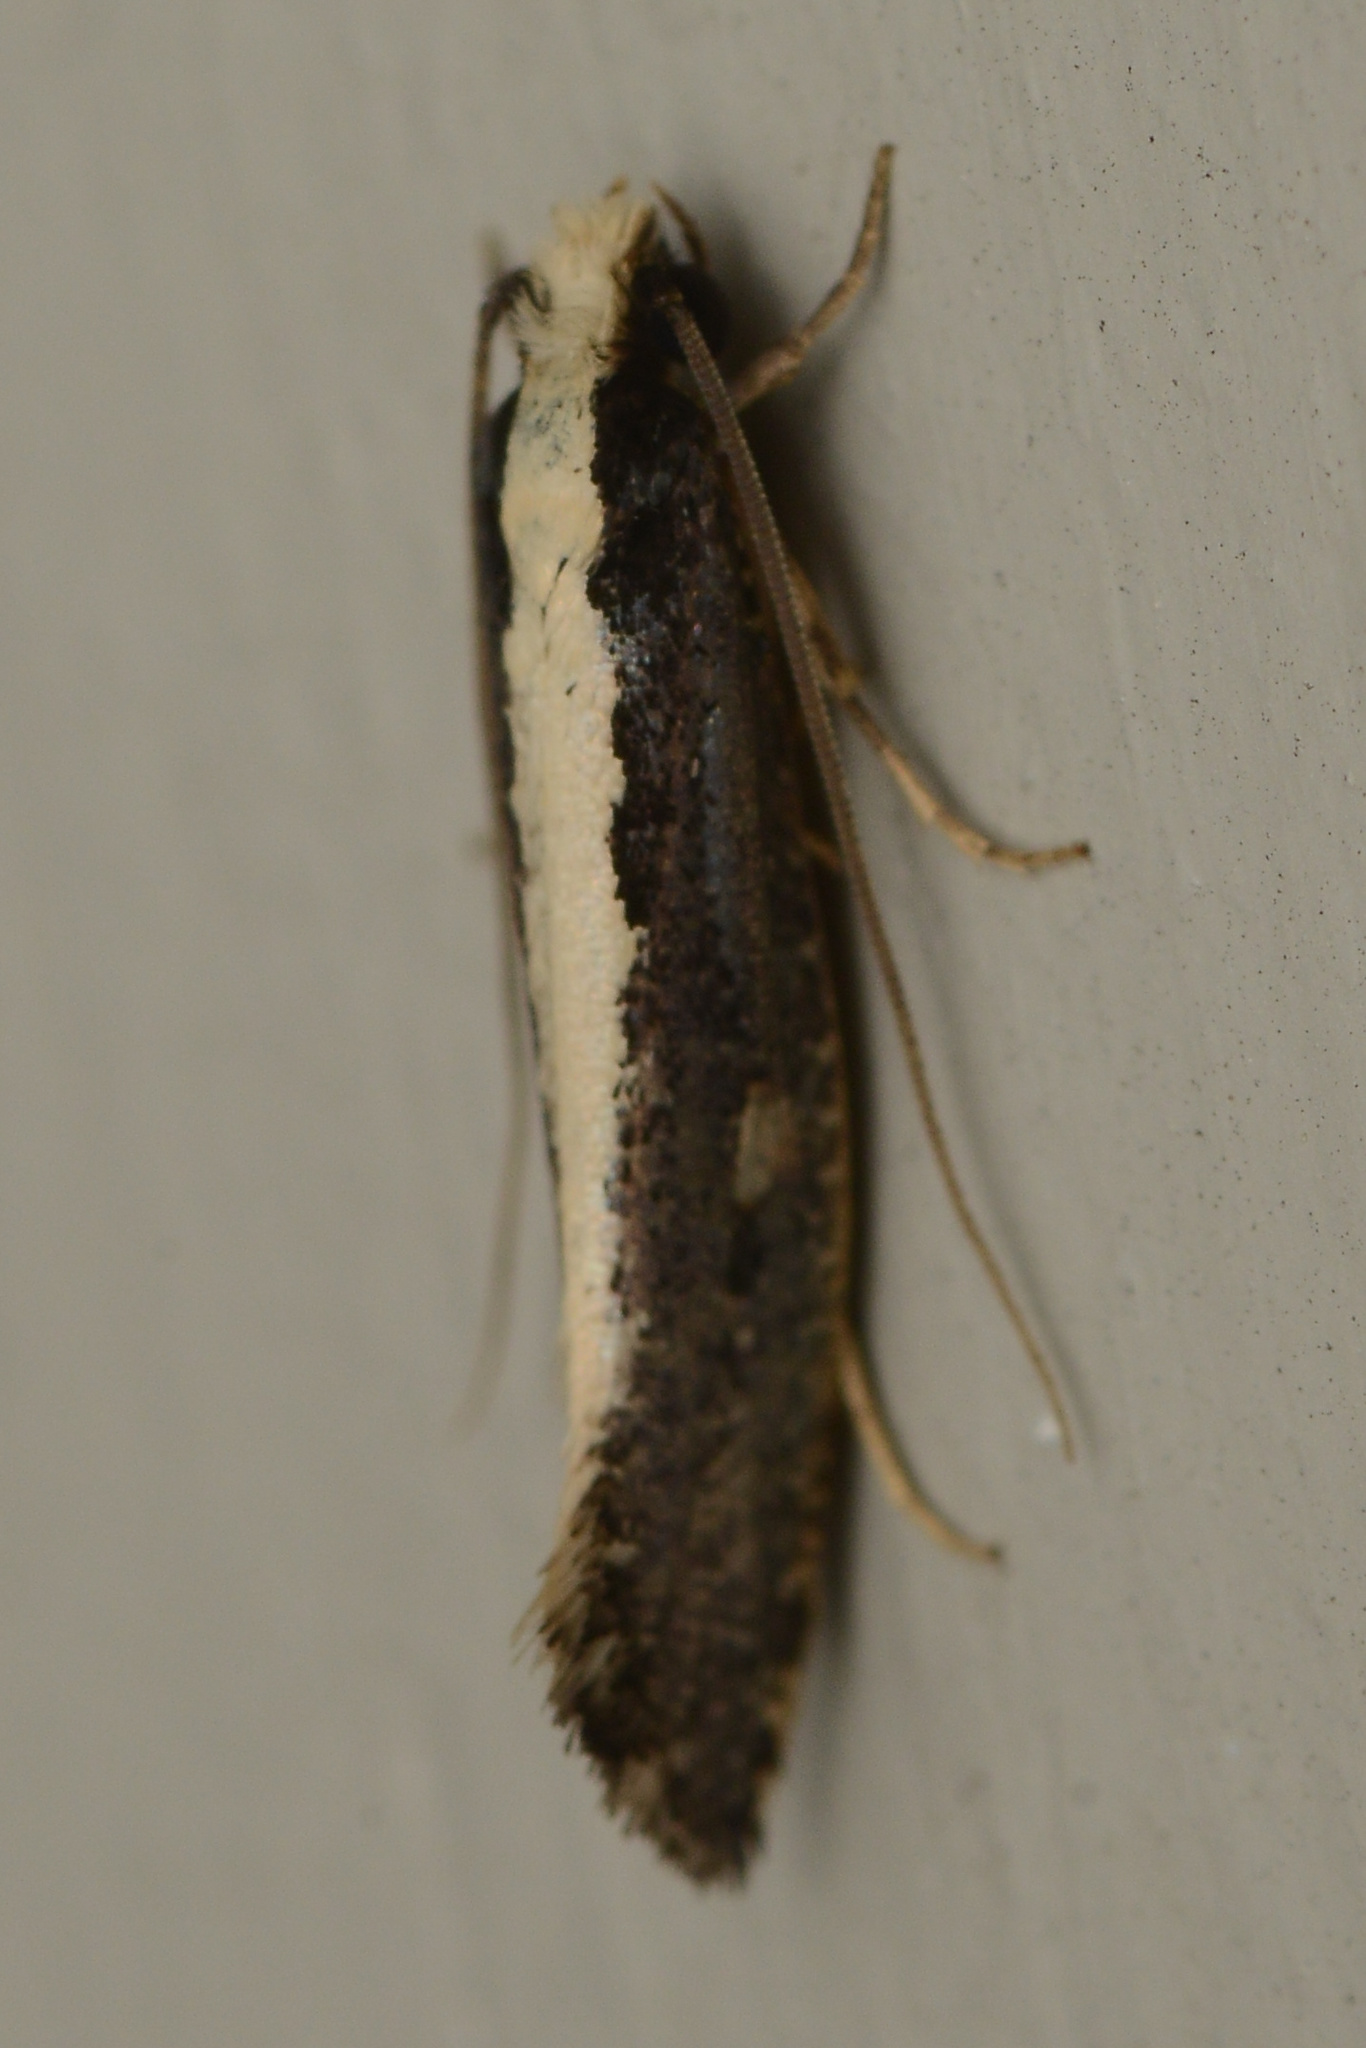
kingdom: Animalia
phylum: Arthropoda
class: Insecta
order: Lepidoptera
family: Tineidae
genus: Monopis
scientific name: Monopis ethelella
